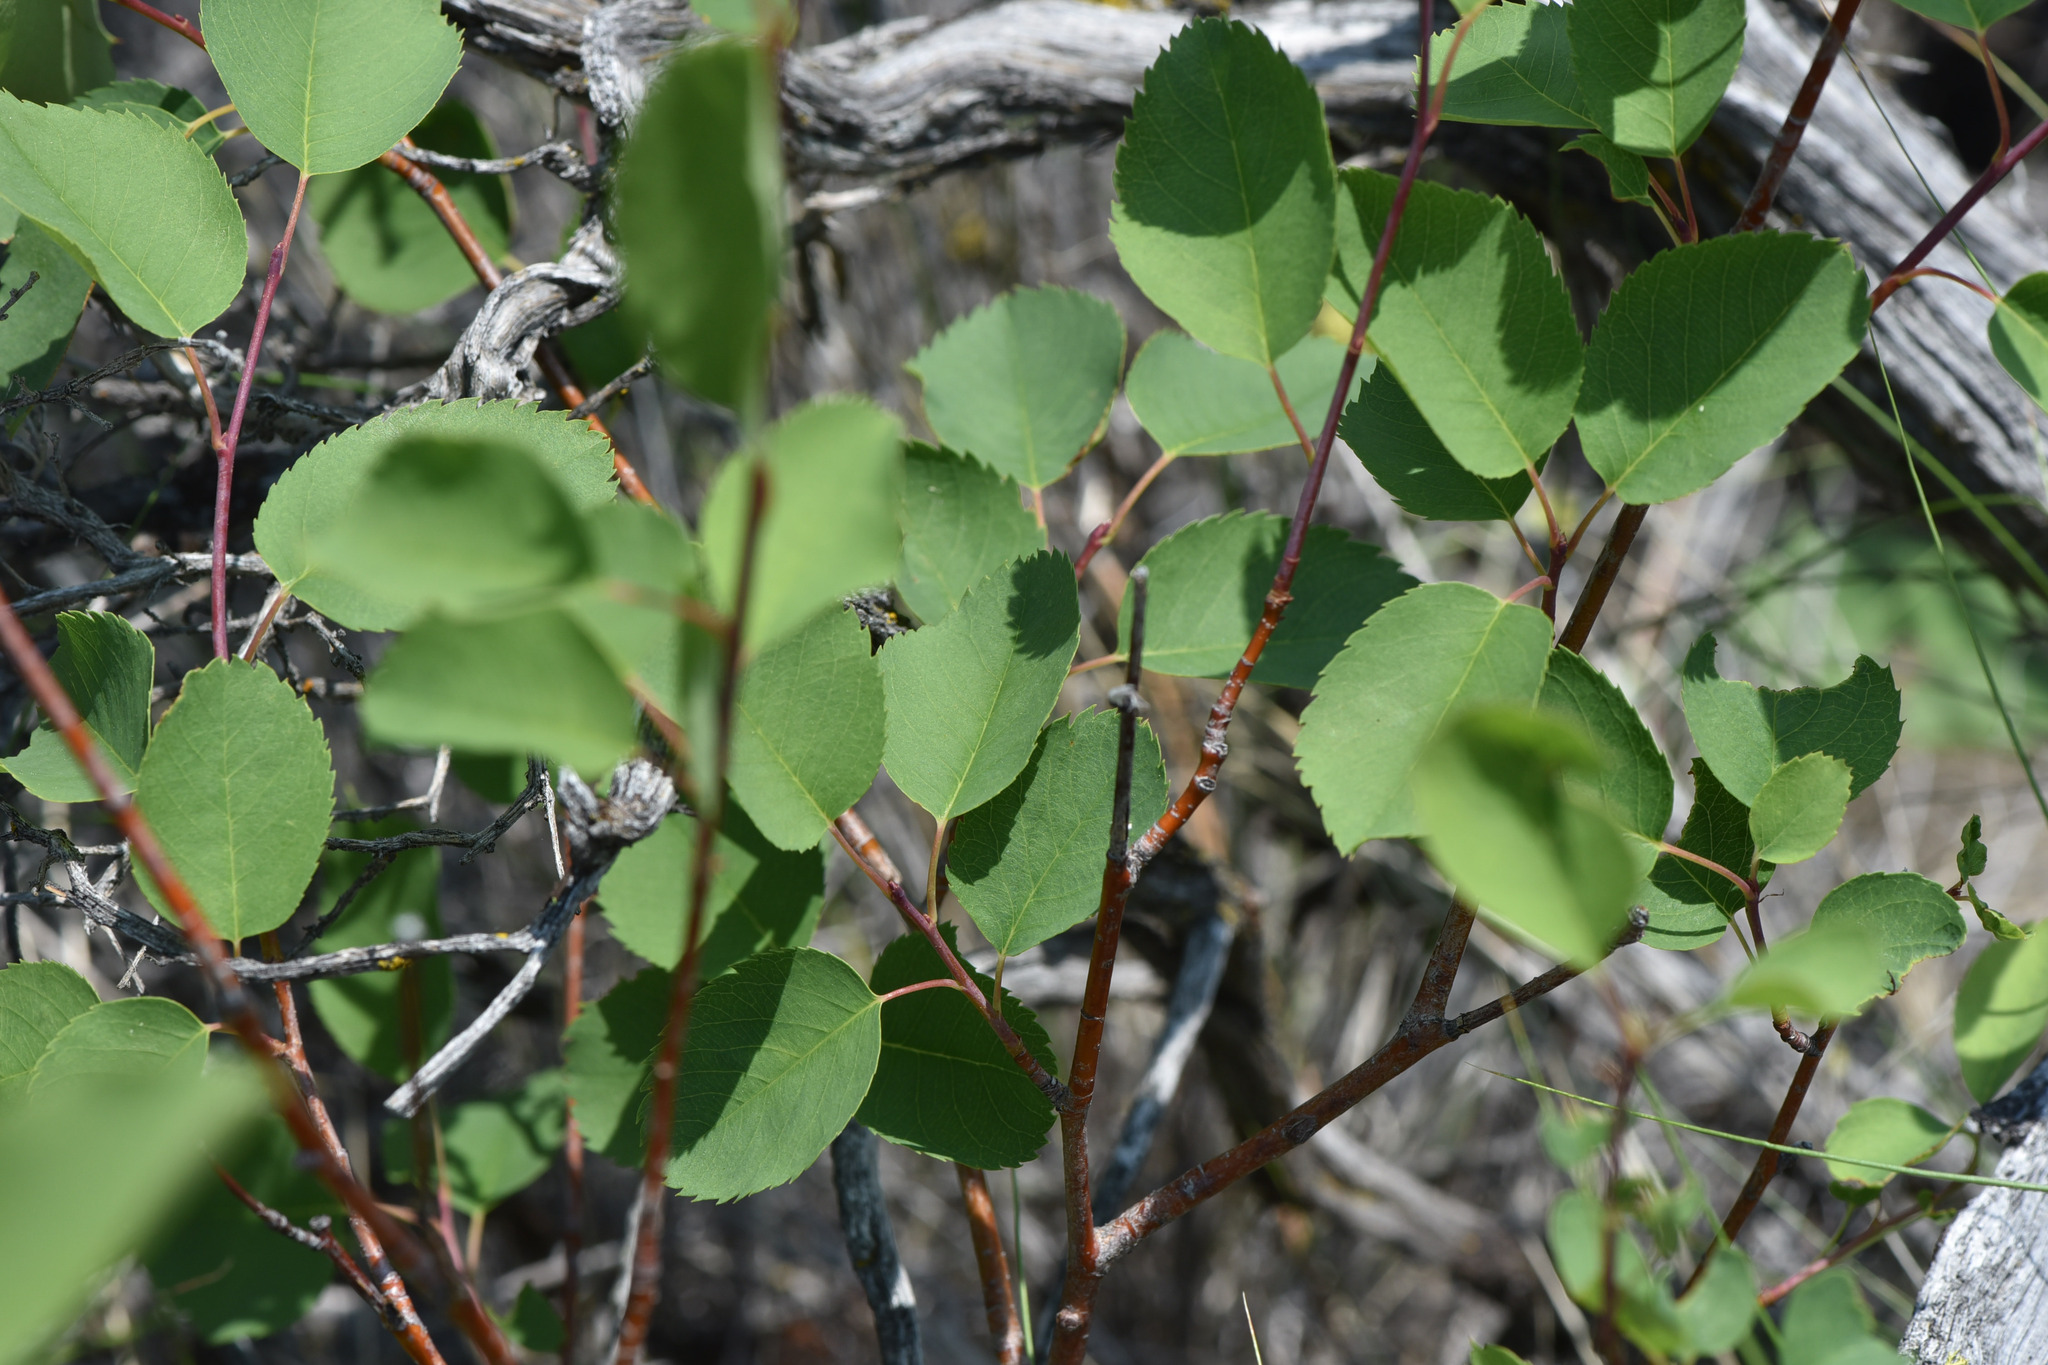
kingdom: Plantae
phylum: Tracheophyta
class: Magnoliopsida
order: Rosales
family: Rosaceae
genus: Amelanchier
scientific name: Amelanchier alnifolia
